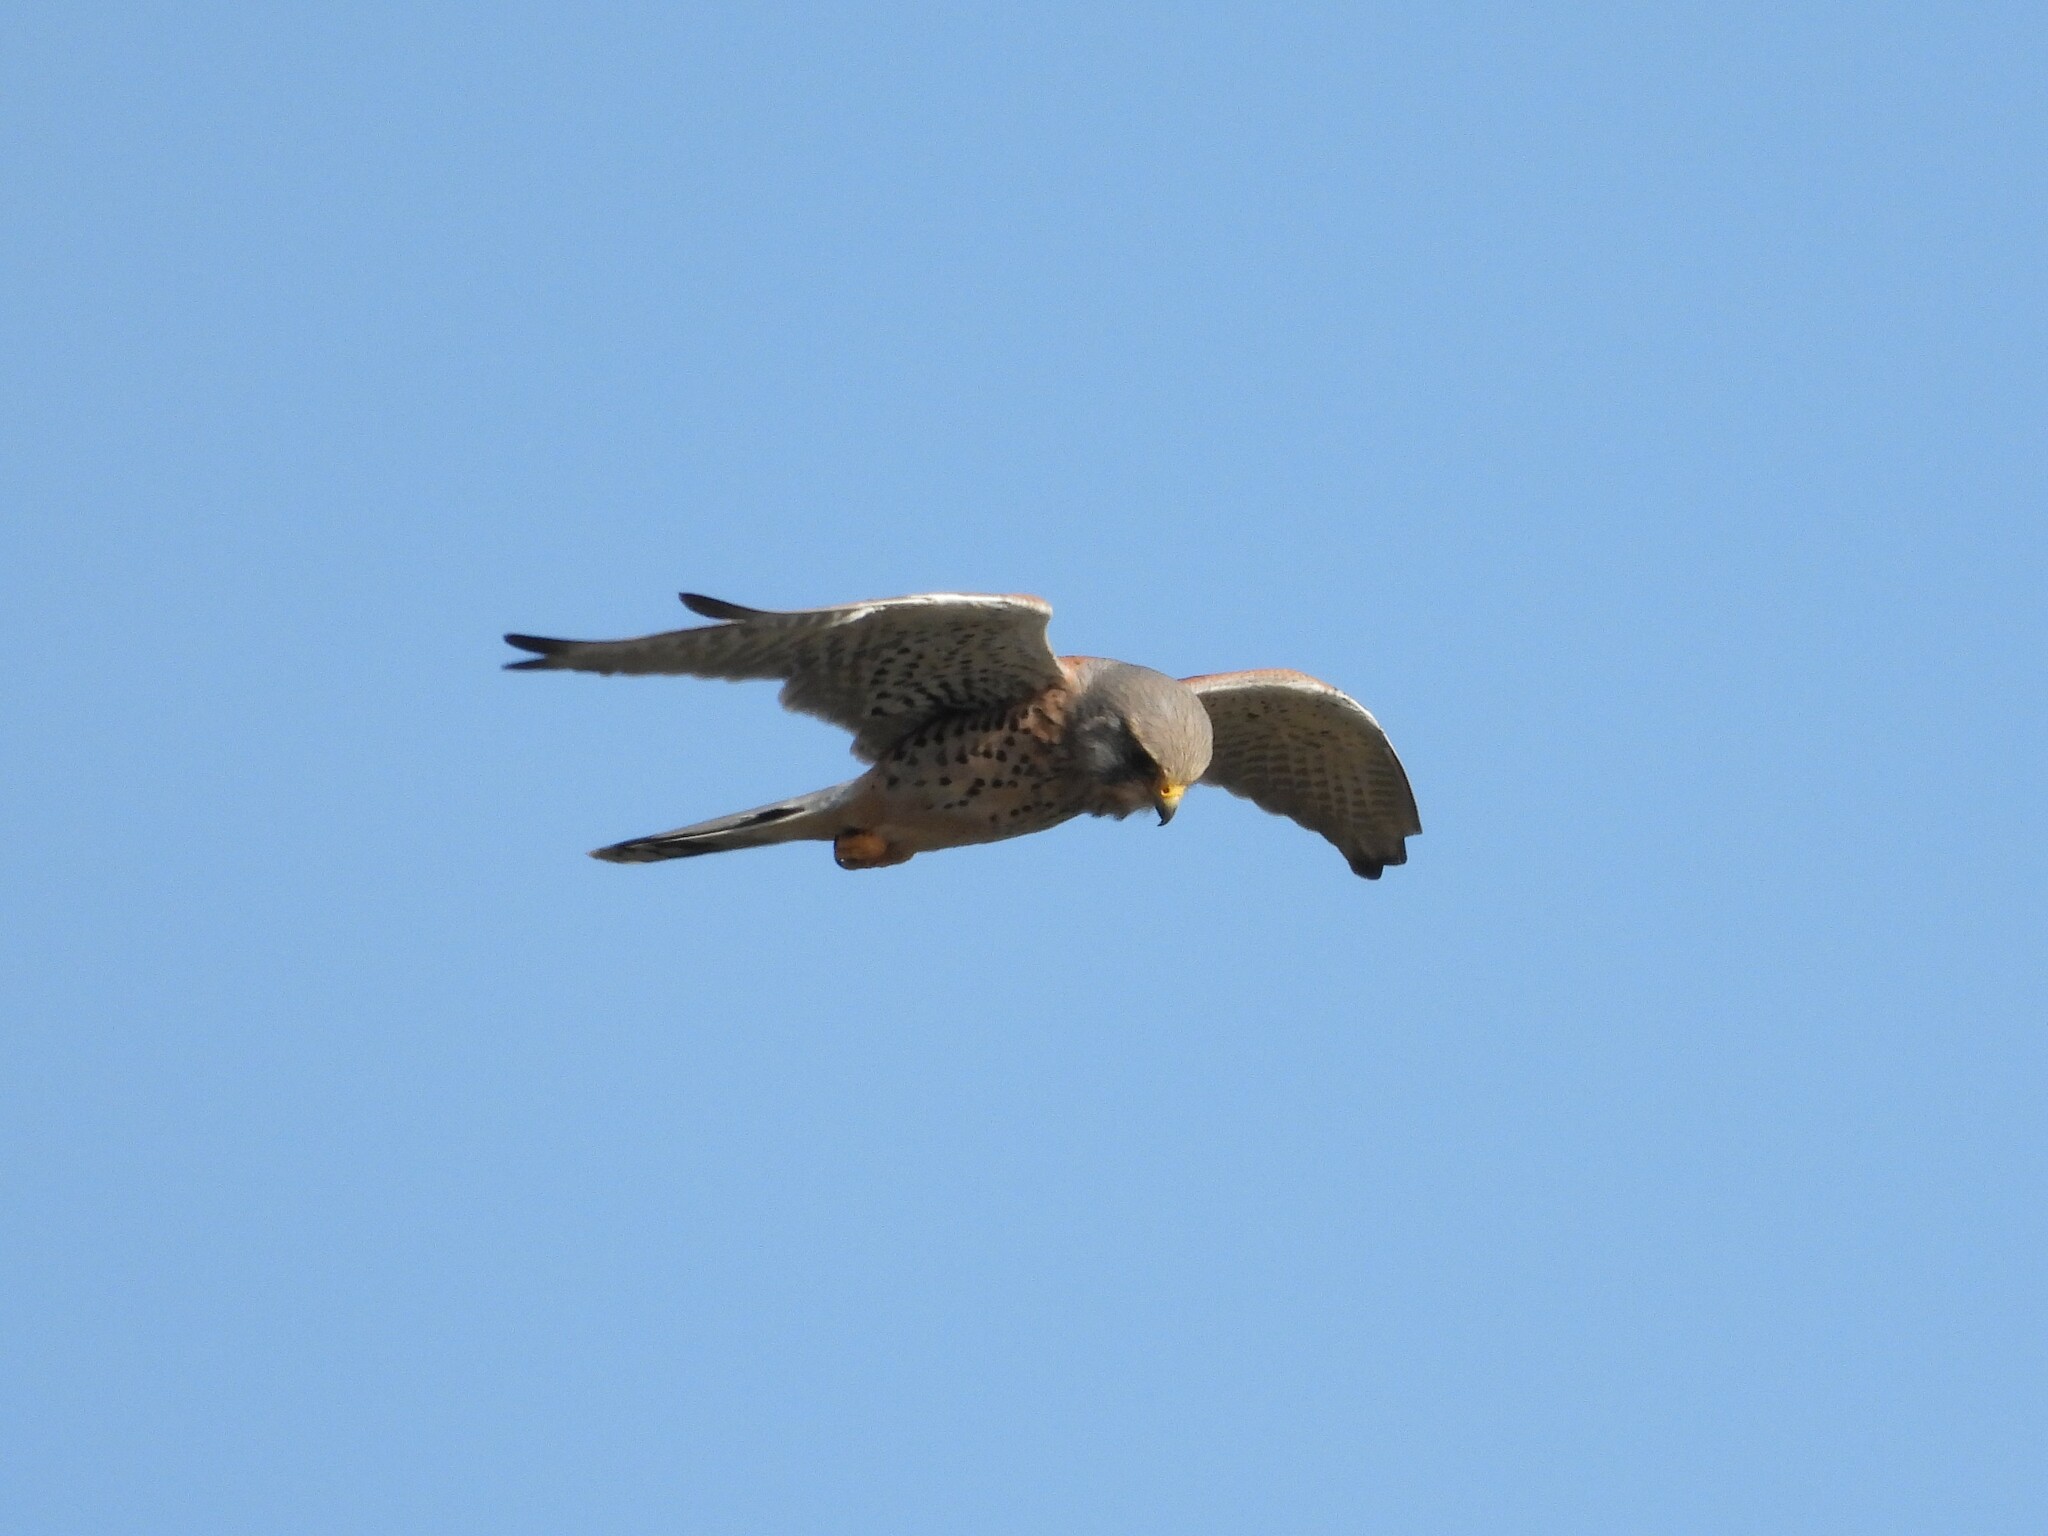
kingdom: Animalia
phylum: Chordata
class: Aves
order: Falconiformes
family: Falconidae
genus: Falco
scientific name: Falco tinnunculus
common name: Common kestrel
